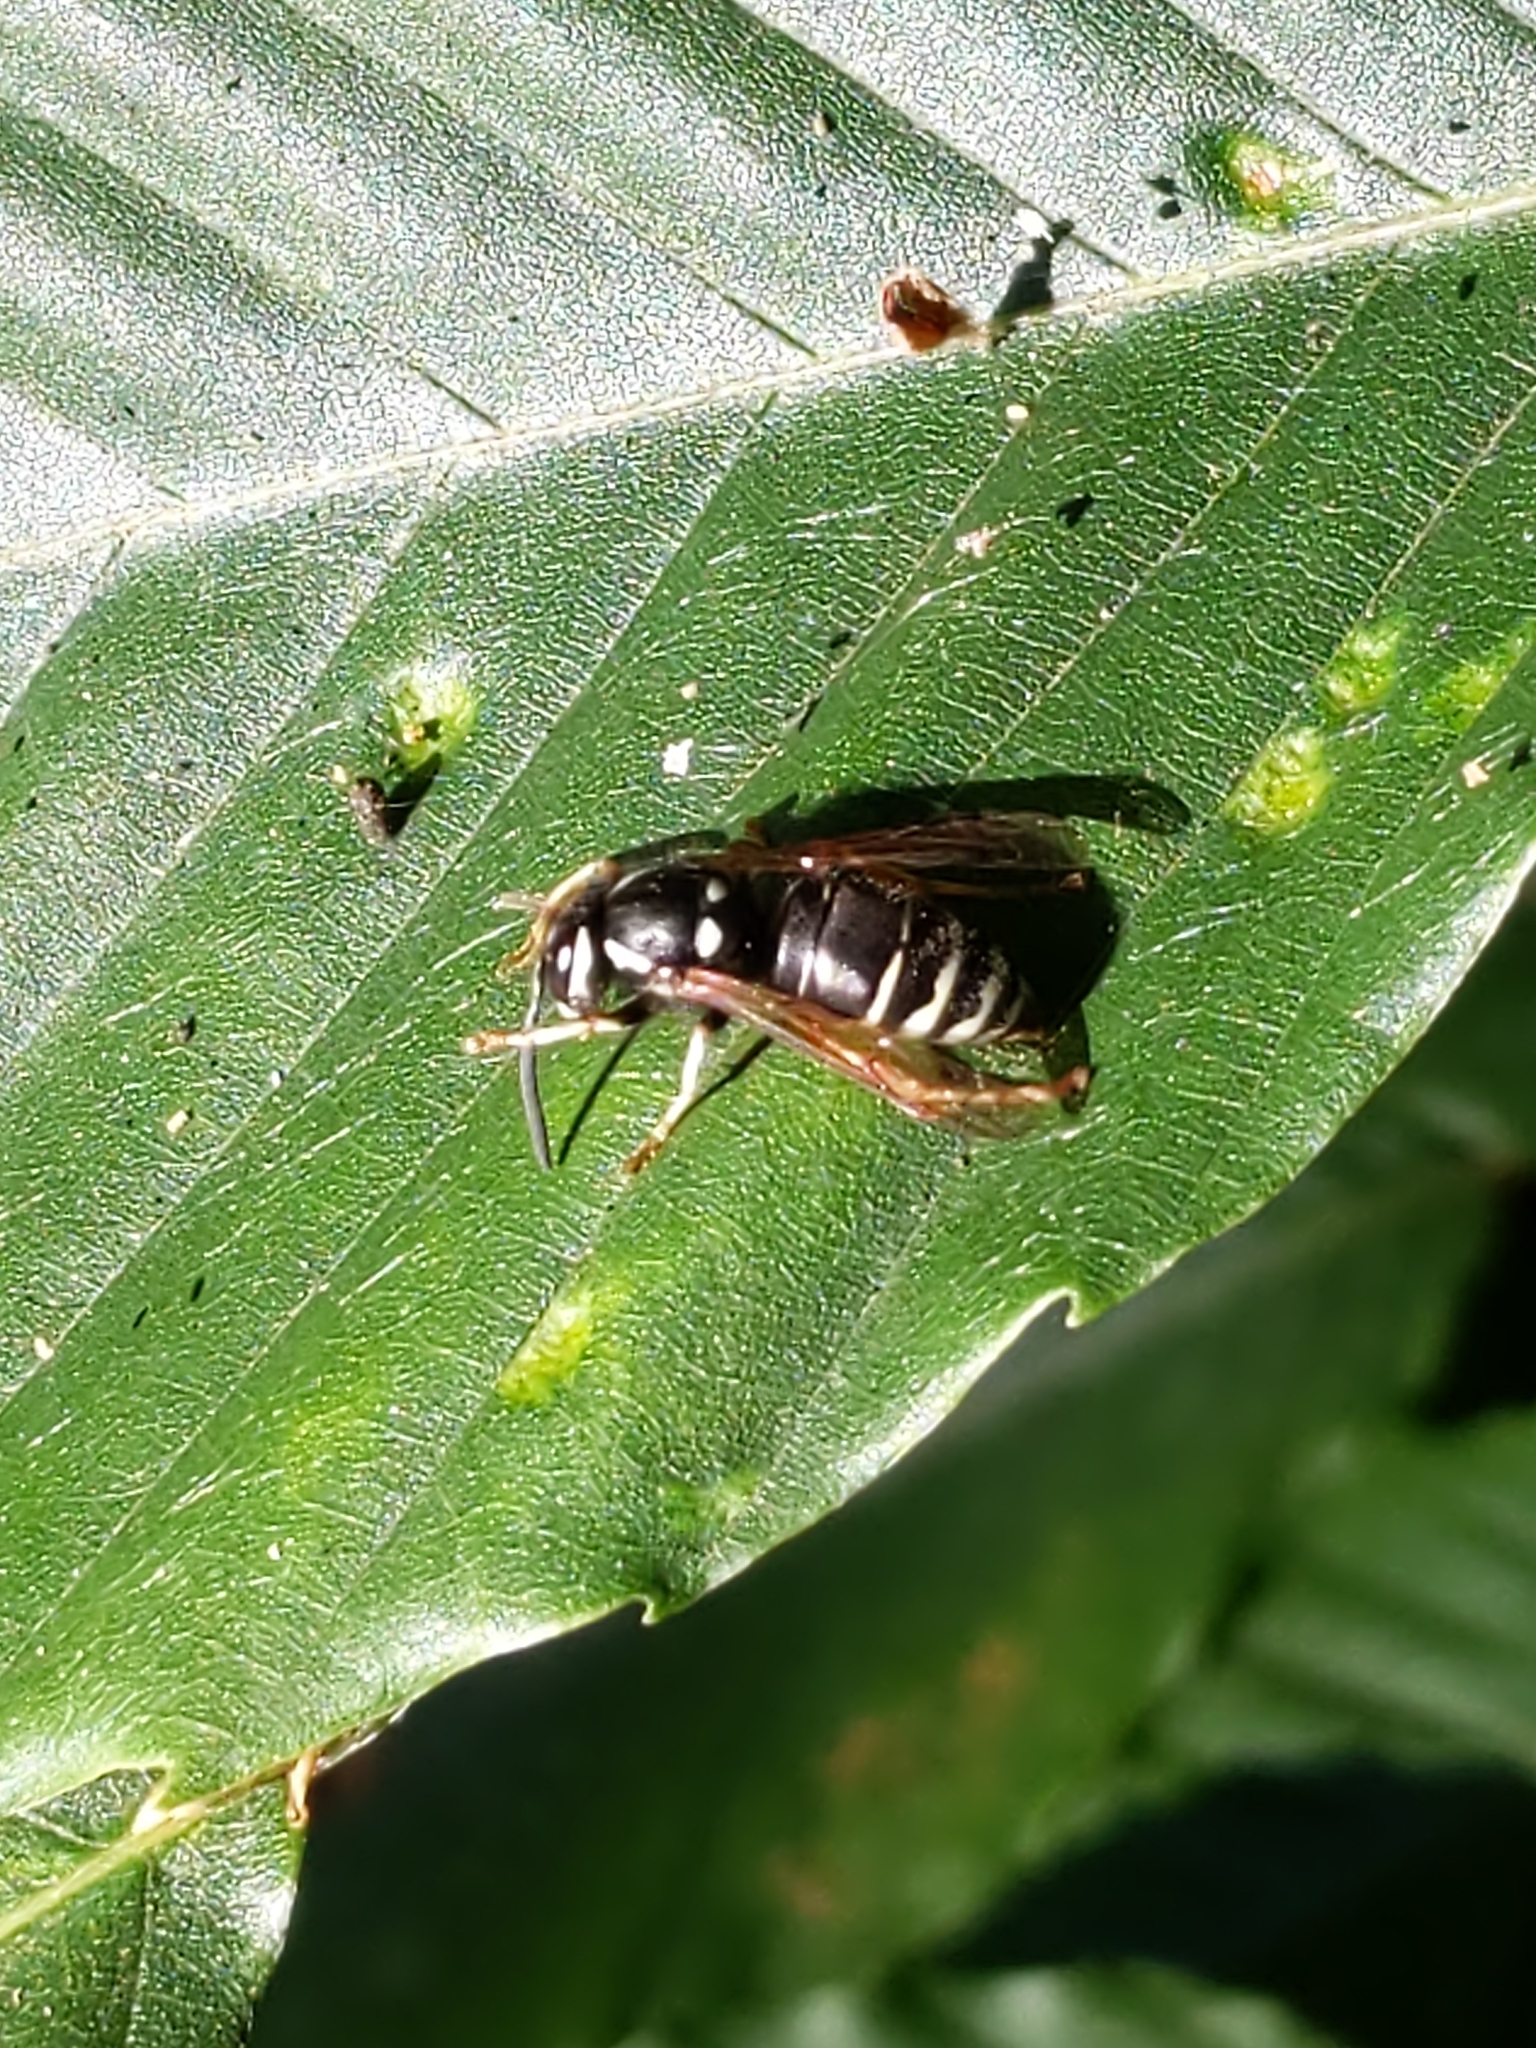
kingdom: Animalia
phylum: Arthropoda
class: Insecta
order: Hymenoptera
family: Vespidae
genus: Vespula
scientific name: Vespula consobrina
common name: Blackjacket
